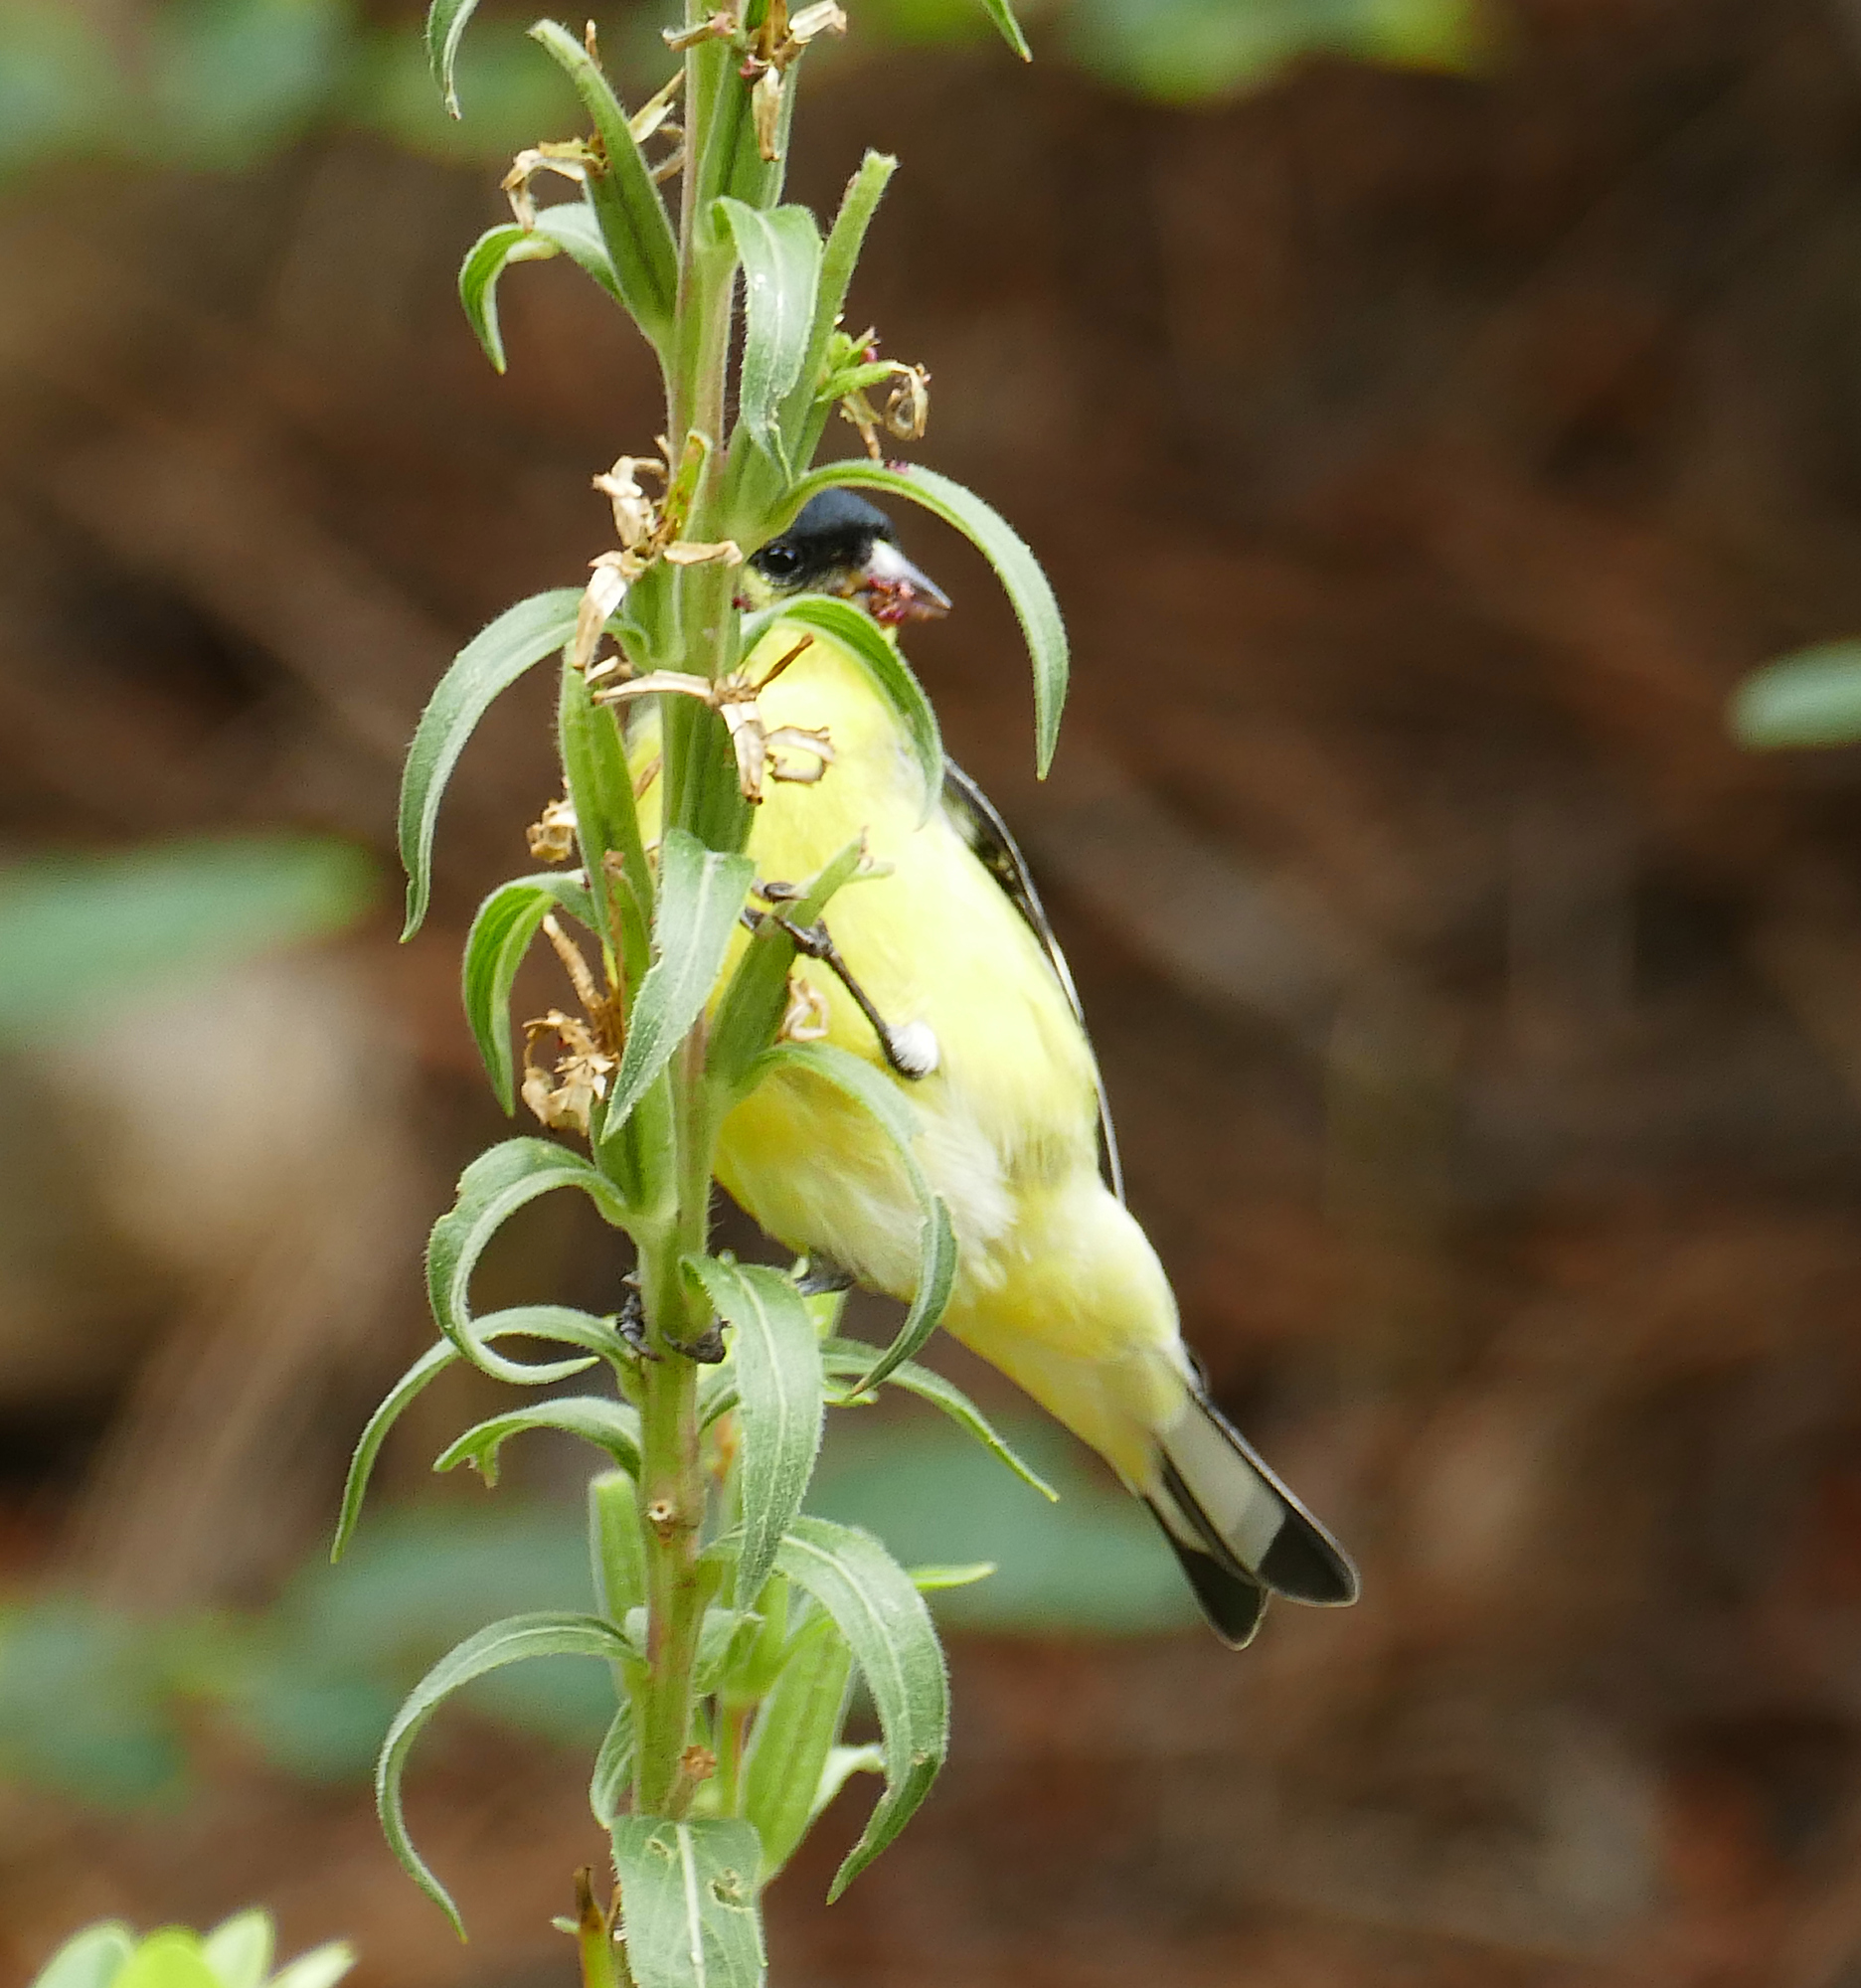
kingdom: Animalia
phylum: Chordata
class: Aves
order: Passeriformes
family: Fringillidae
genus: Spinus
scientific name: Spinus psaltria
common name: Lesser goldfinch
